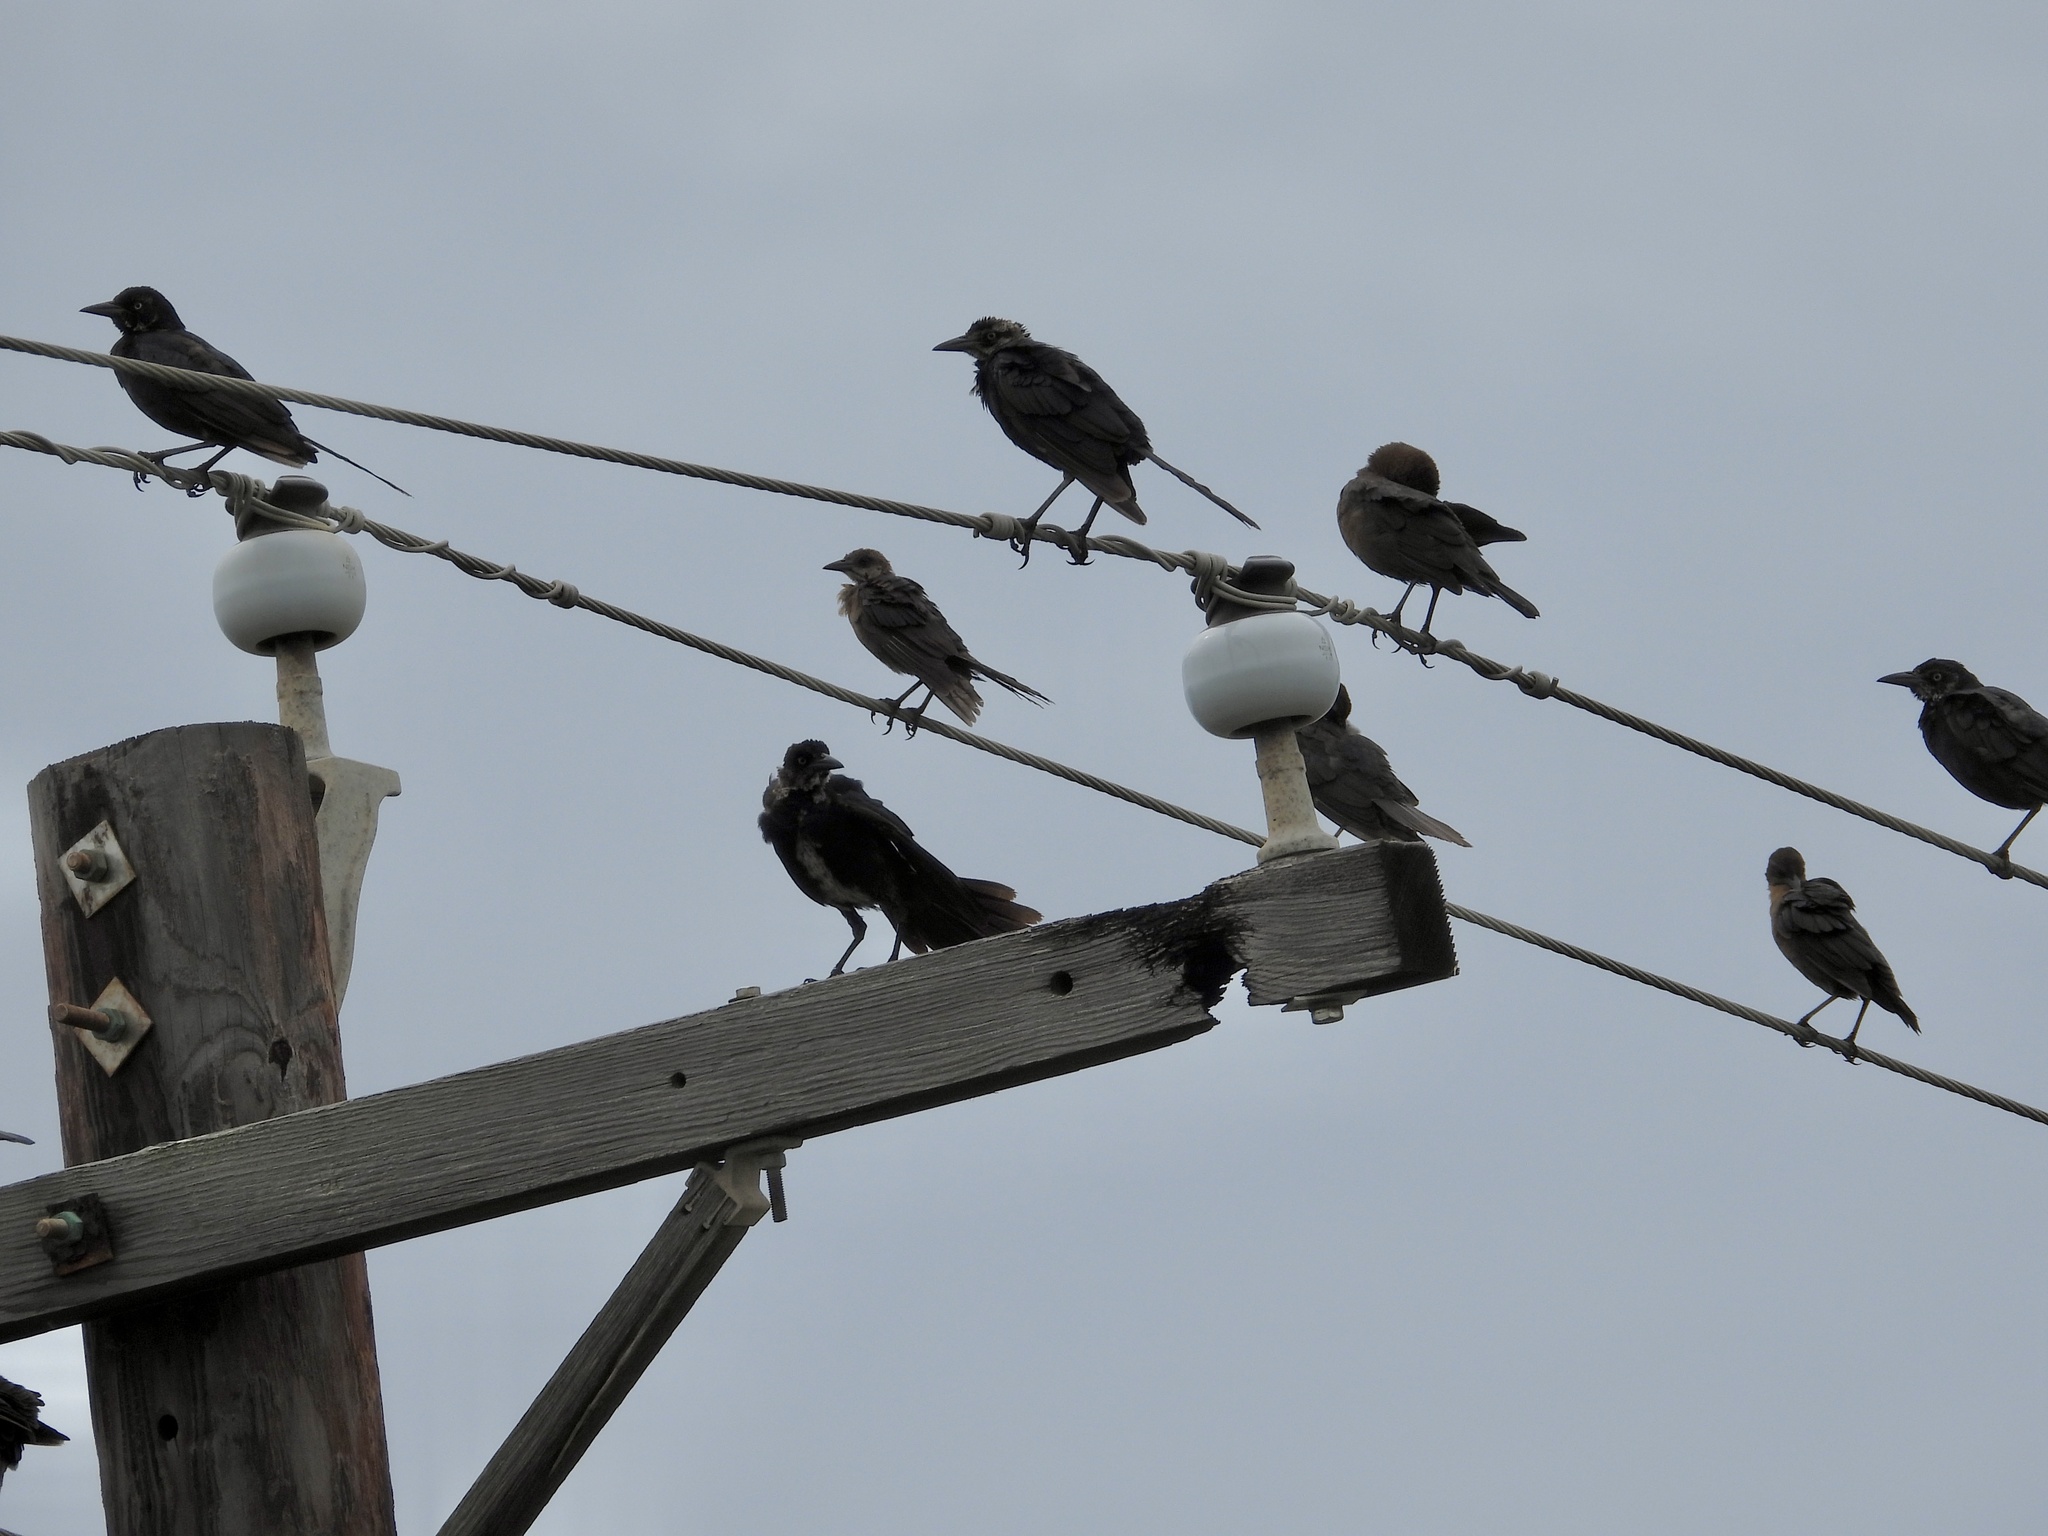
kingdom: Animalia
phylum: Chordata
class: Aves
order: Passeriformes
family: Icteridae
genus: Quiscalus
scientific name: Quiscalus mexicanus
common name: Great-tailed grackle
